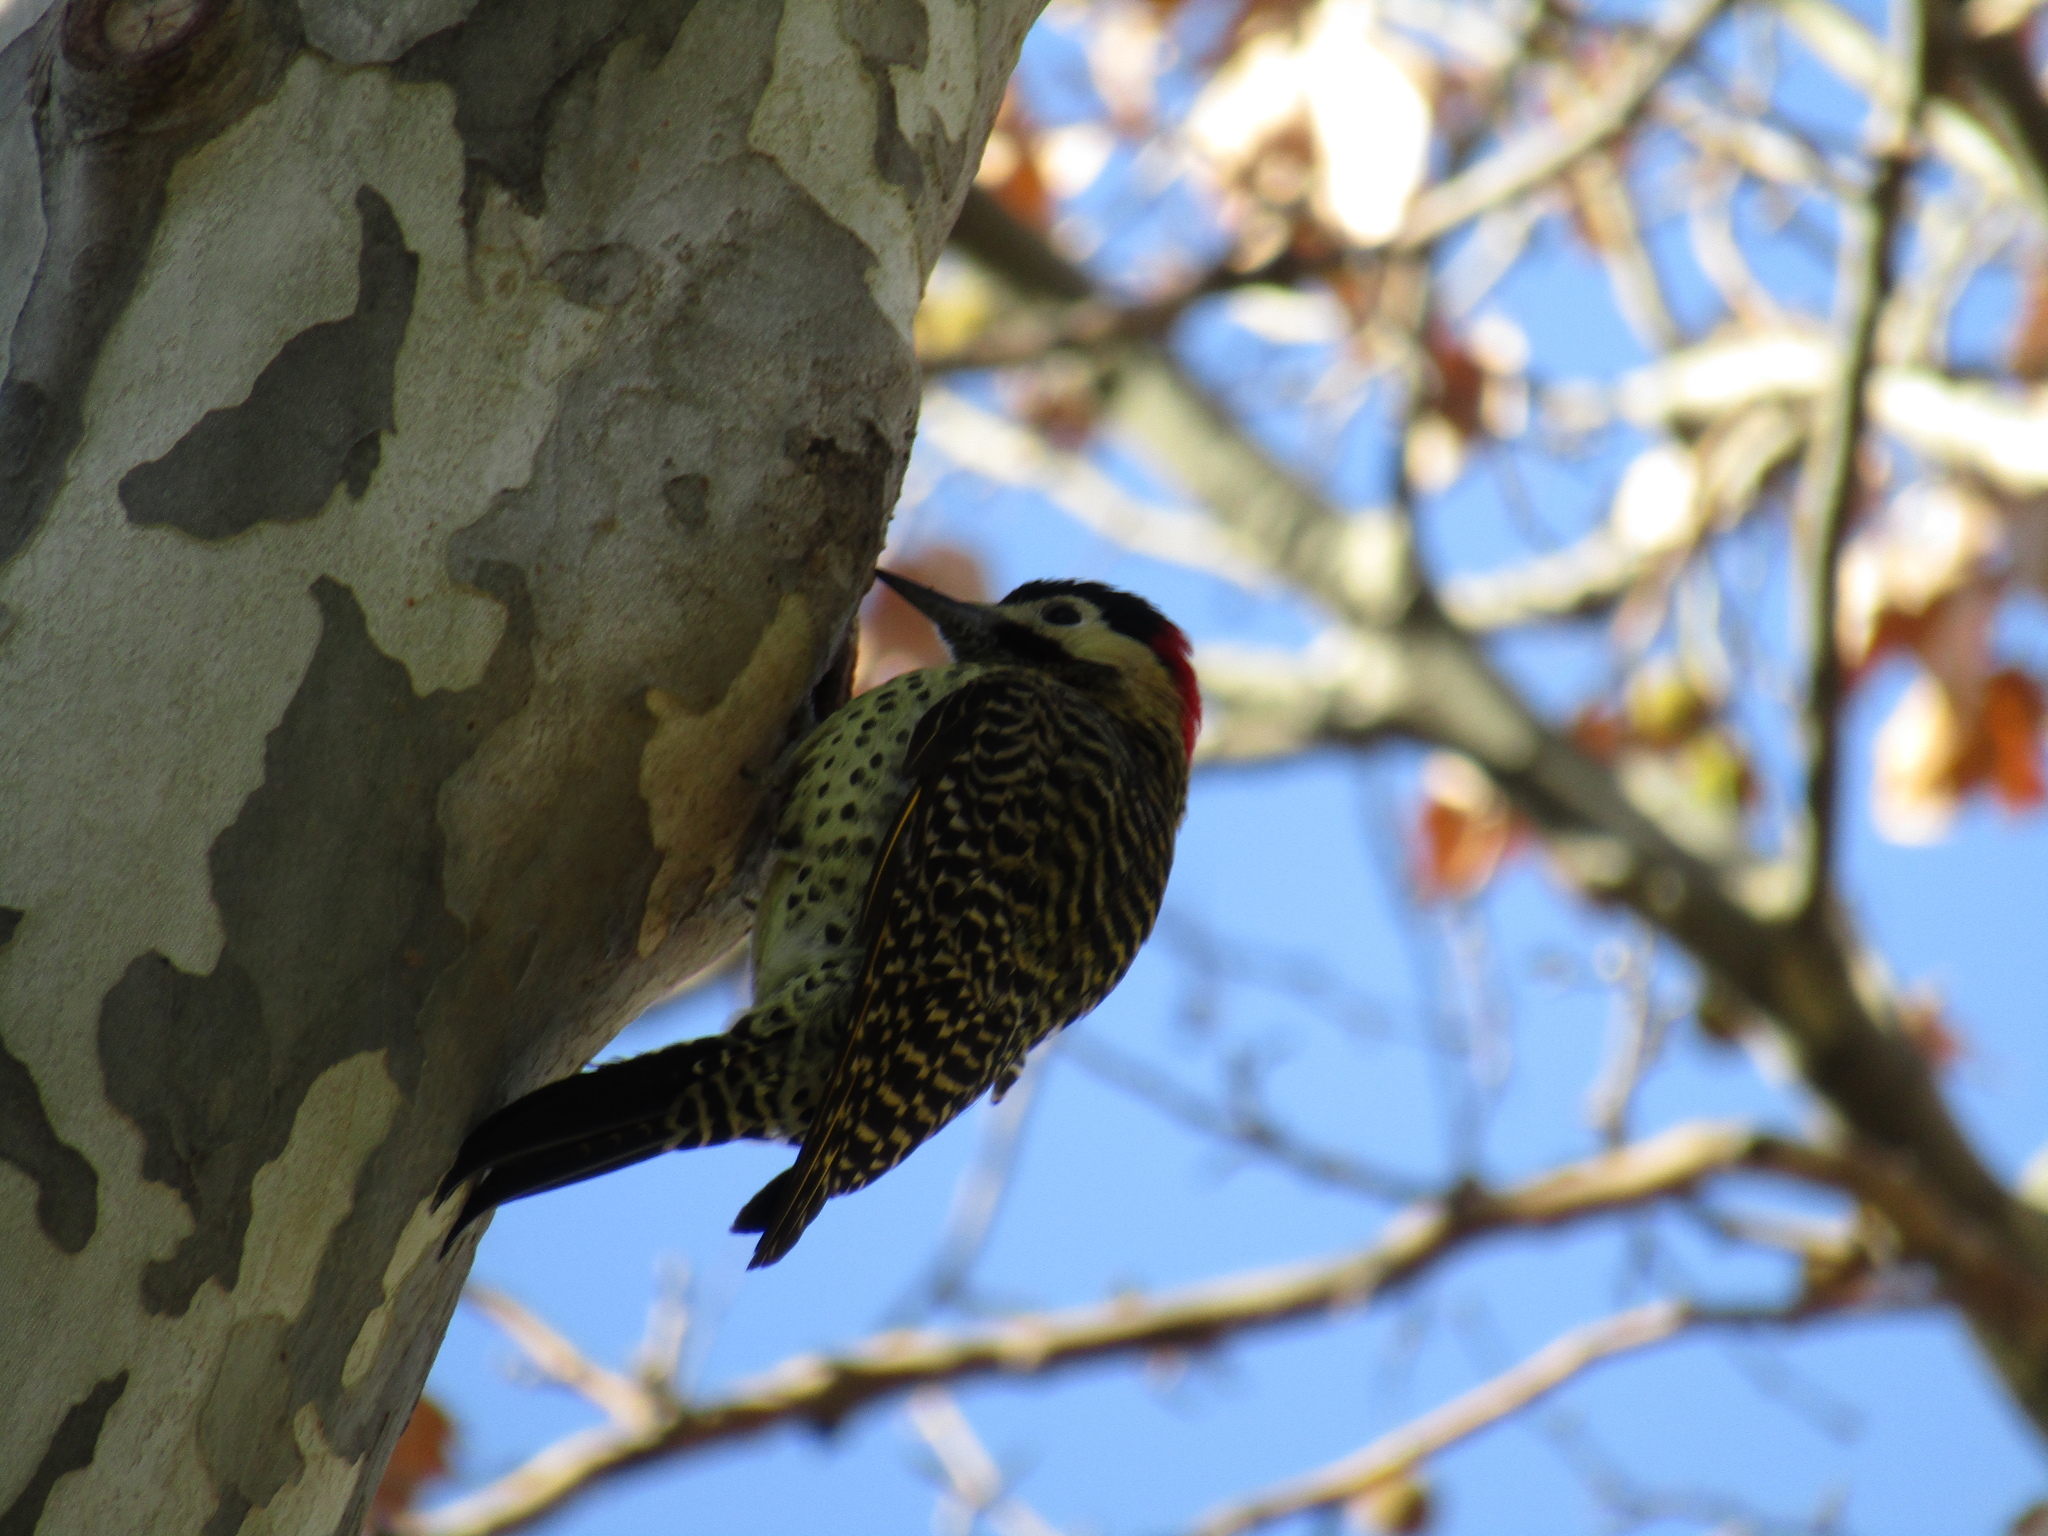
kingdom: Animalia
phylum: Chordata
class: Aves
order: Piciformes
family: Picidae
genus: Colaptes
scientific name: Colaptes melanochloros
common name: Green-barred woodpecker
